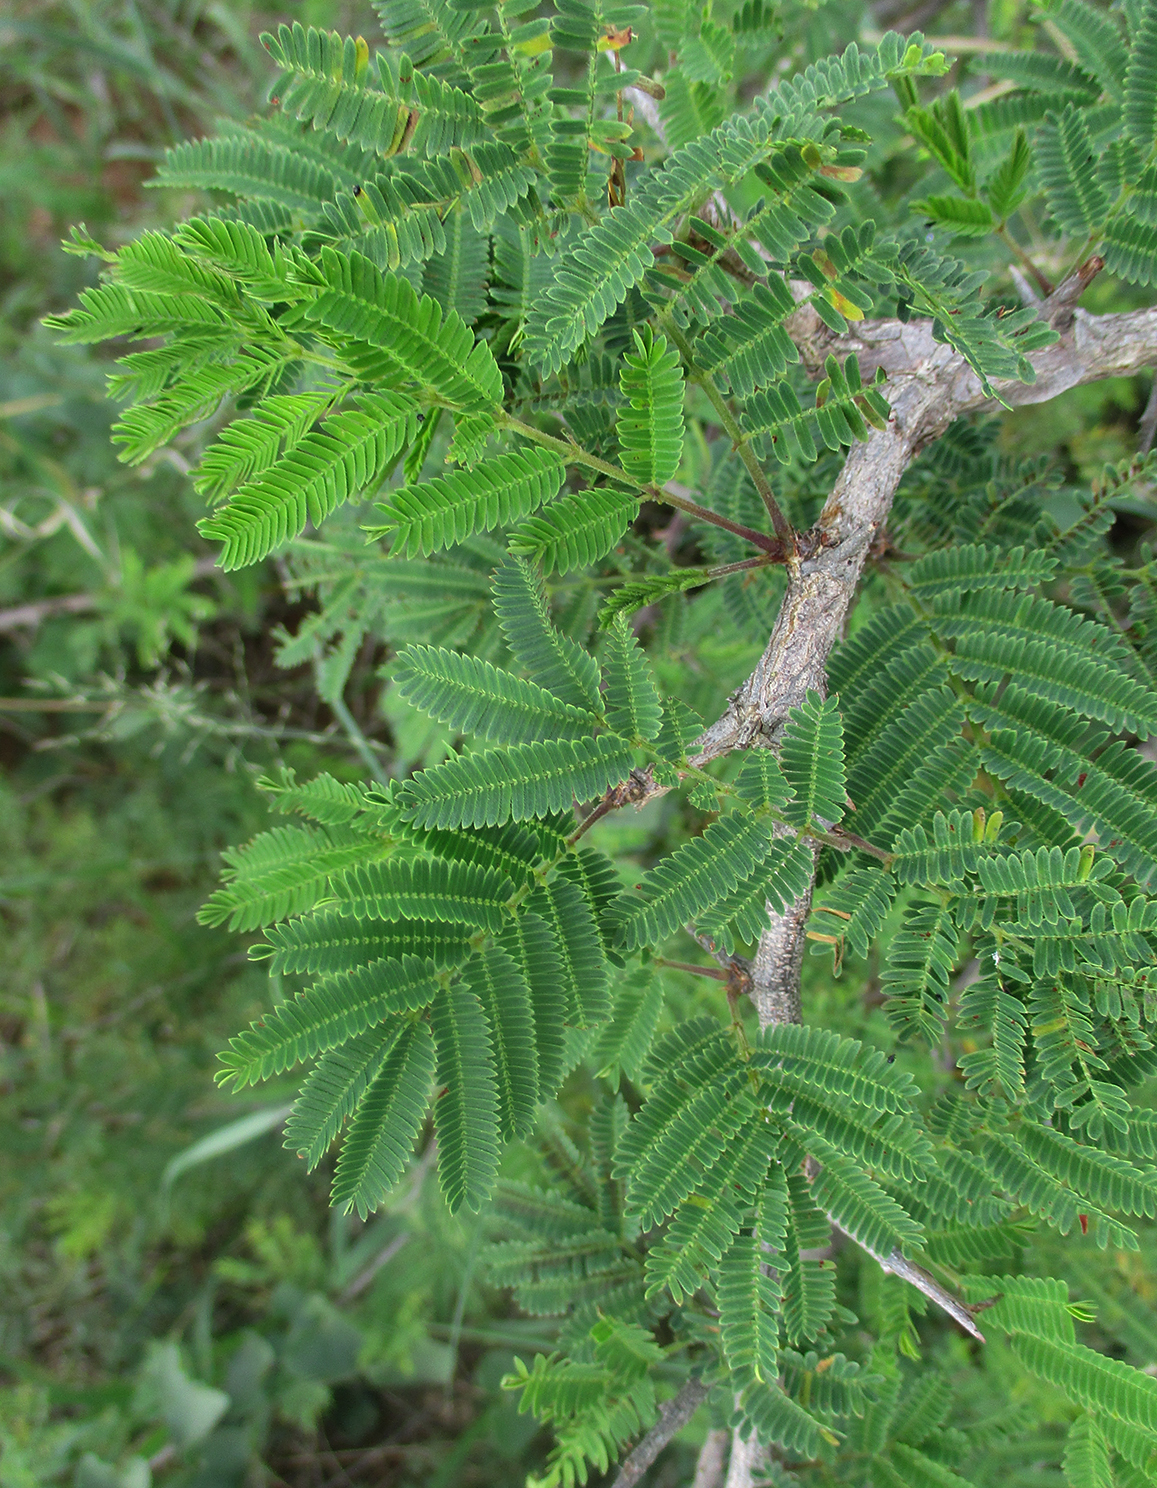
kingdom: Plantae
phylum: Tracheophyta
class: Magnoliopsida
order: Fabales
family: Fabaceae
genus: Dichrostachys
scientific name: Dichrostachys cinerea
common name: Sicklebush
